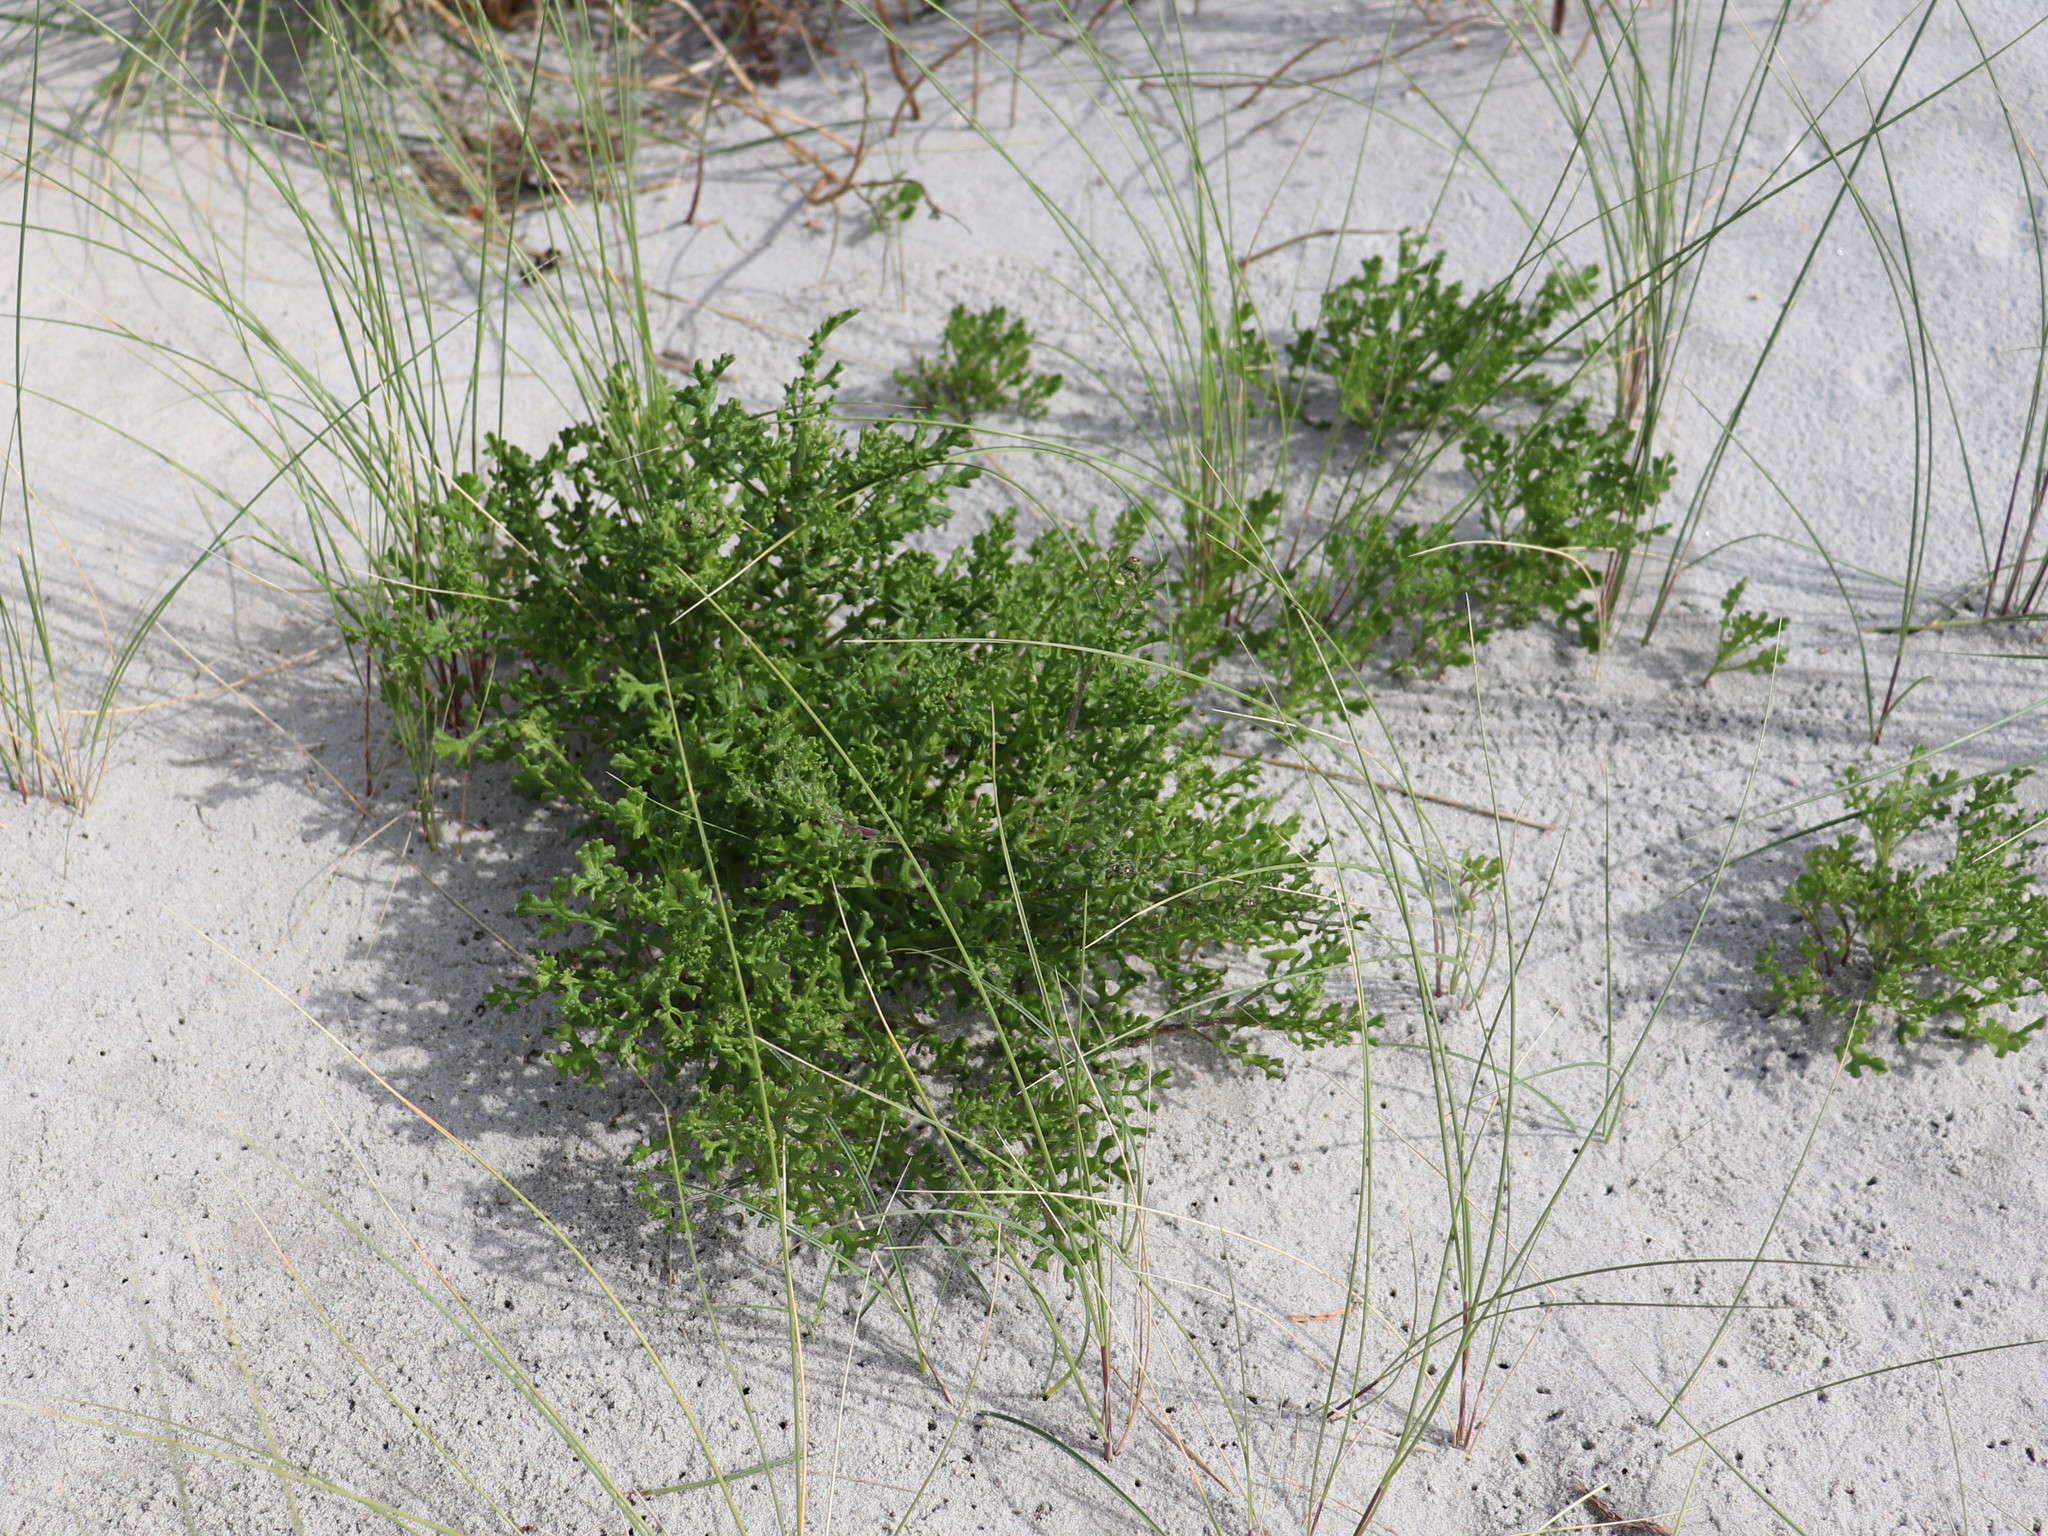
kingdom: Plantae
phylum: Tracheophyta
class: Magnoliopsida
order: Asterales
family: Asteraceae
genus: Senecio
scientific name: Senecio elegans
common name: Purple groundsel
